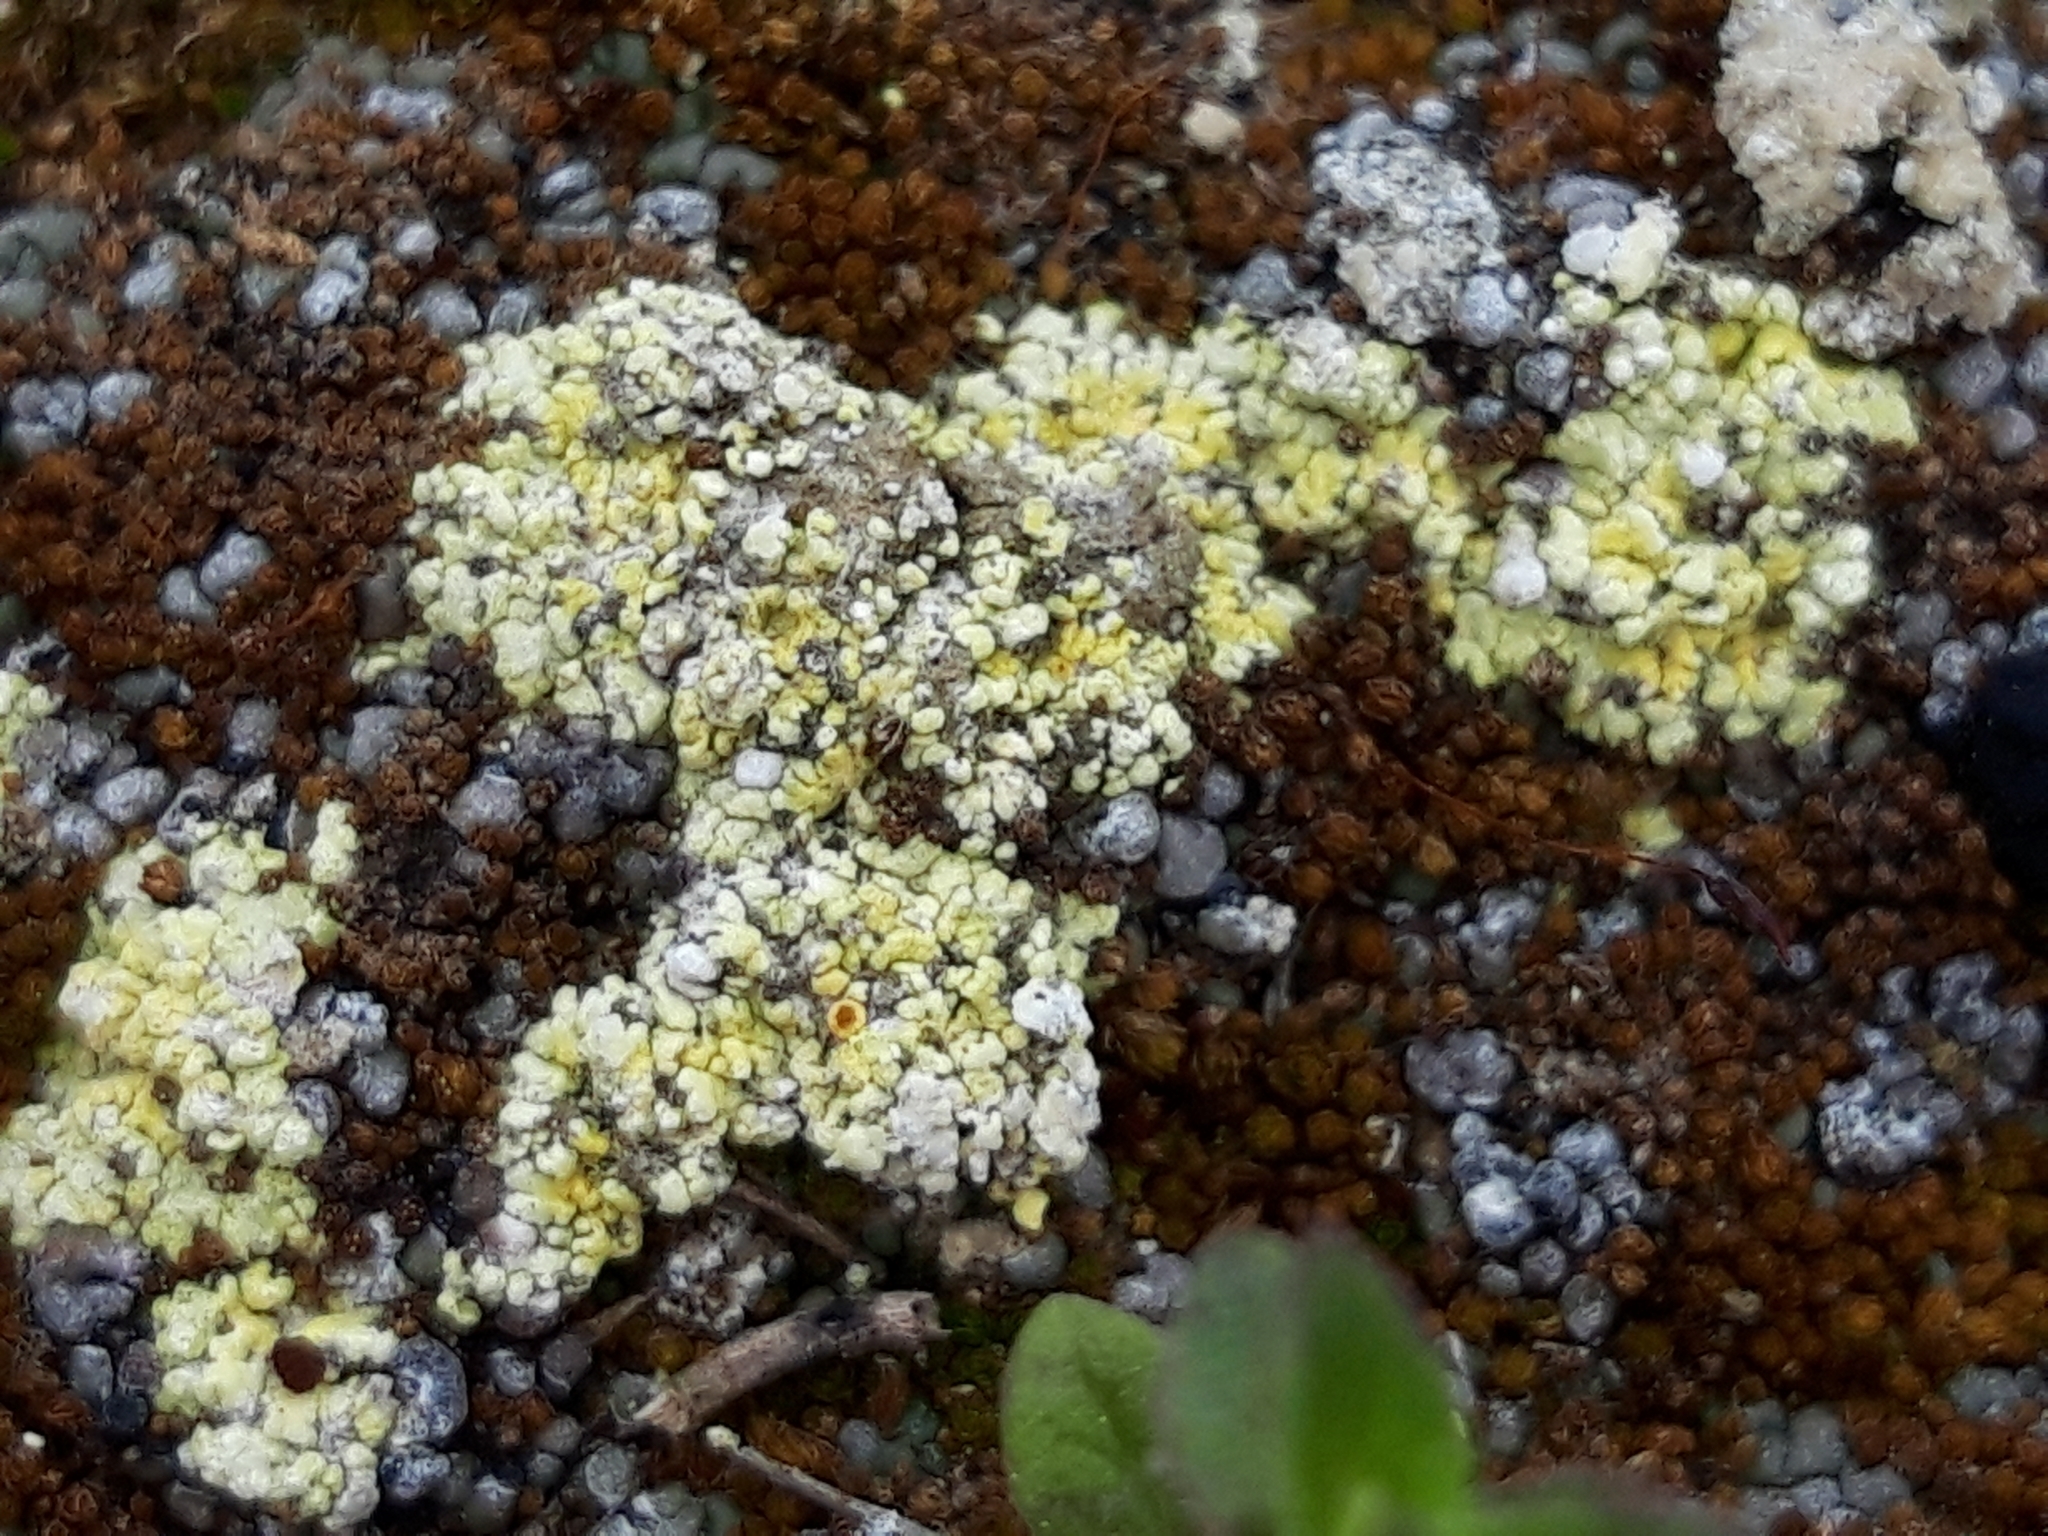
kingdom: Fungi
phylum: Ascomycota
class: Lecanoromycetes
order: Teloschistales
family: Teloschistaceae
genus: Gyalolechia
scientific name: Gyalolechia fulgens
